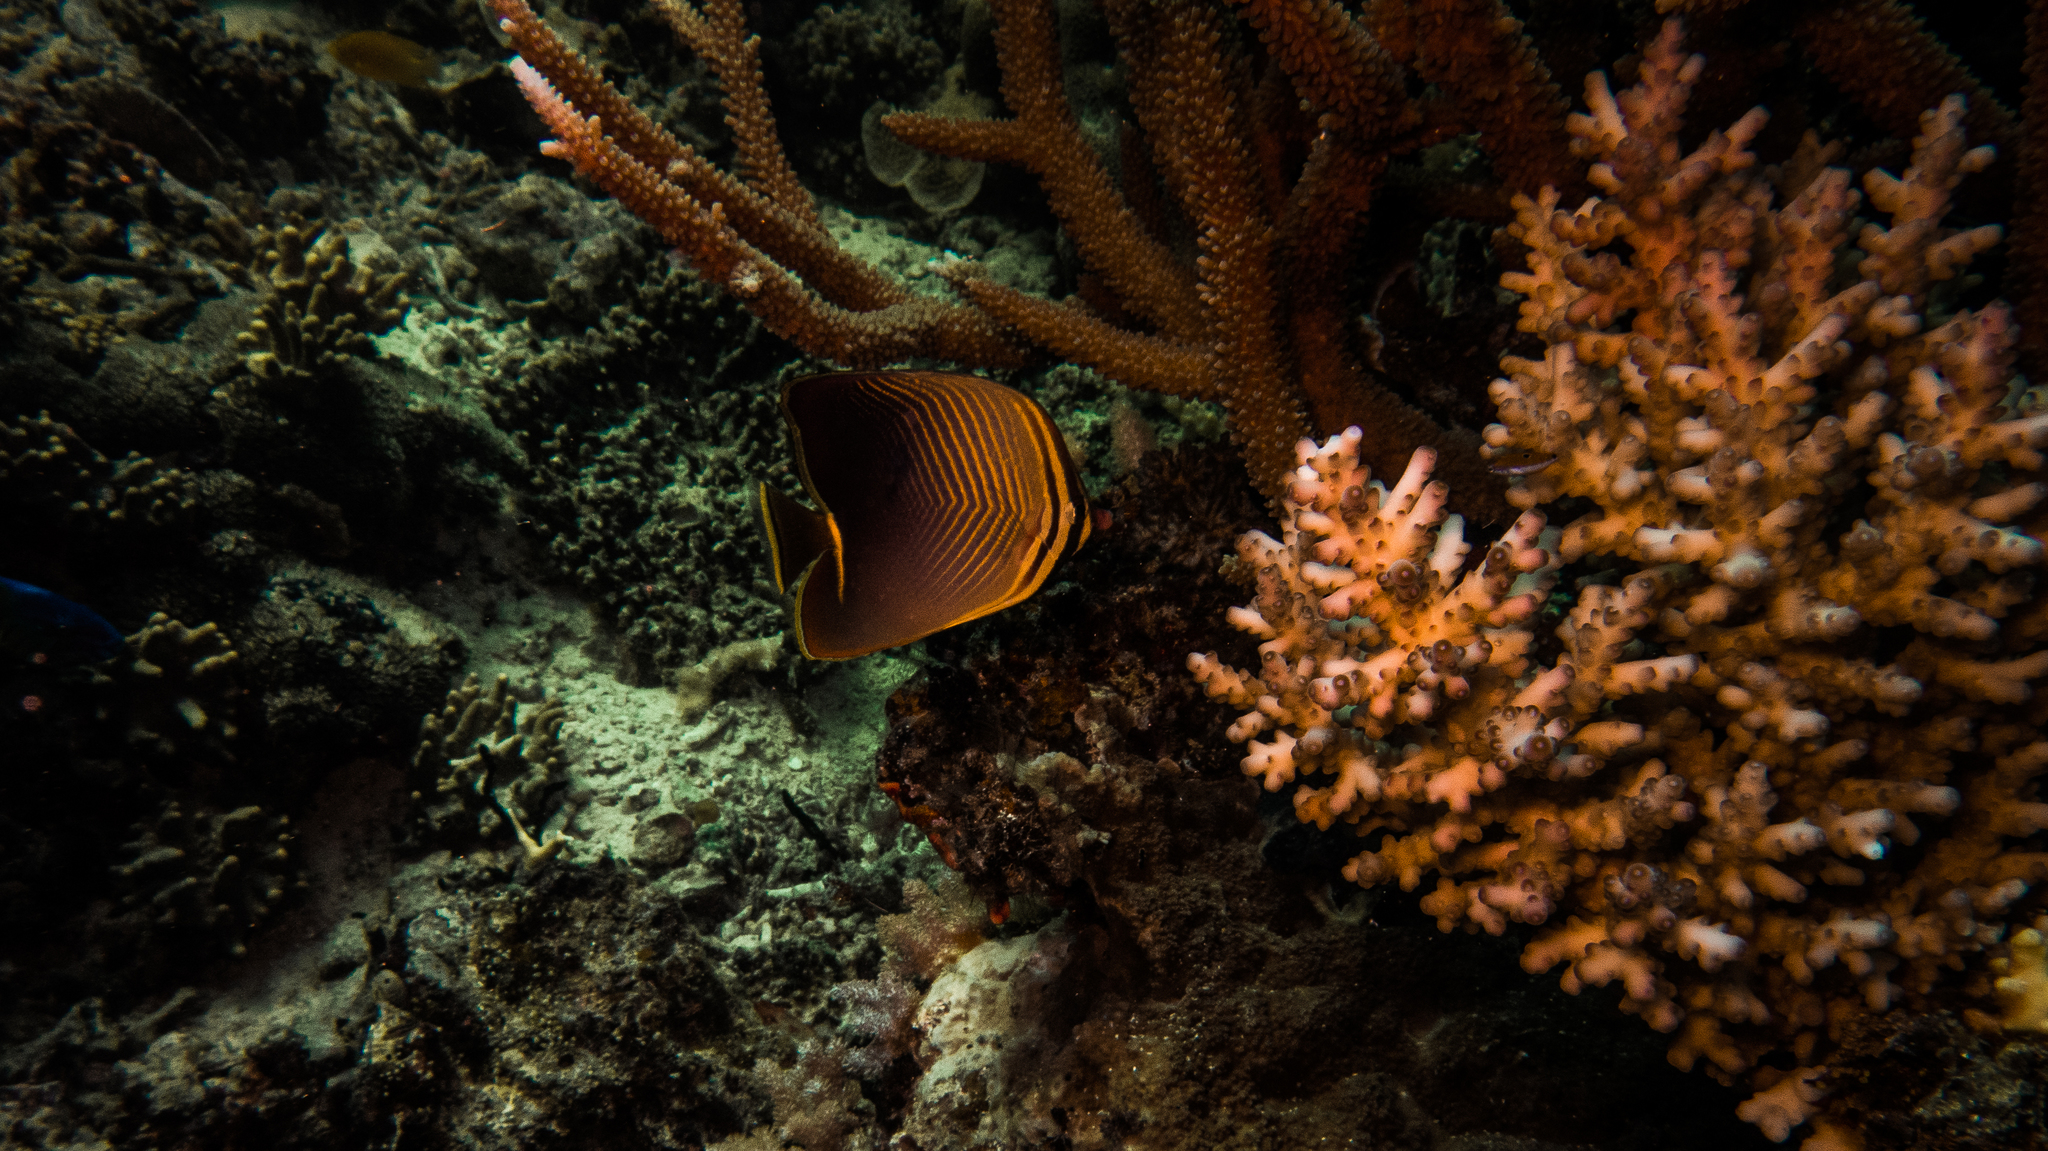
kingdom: Animalia
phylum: Chordata
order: Perciformes
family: Chaetodontidae
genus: Chaetodon
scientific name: Chaetodon baronessa
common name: Triangular butterflyfish
